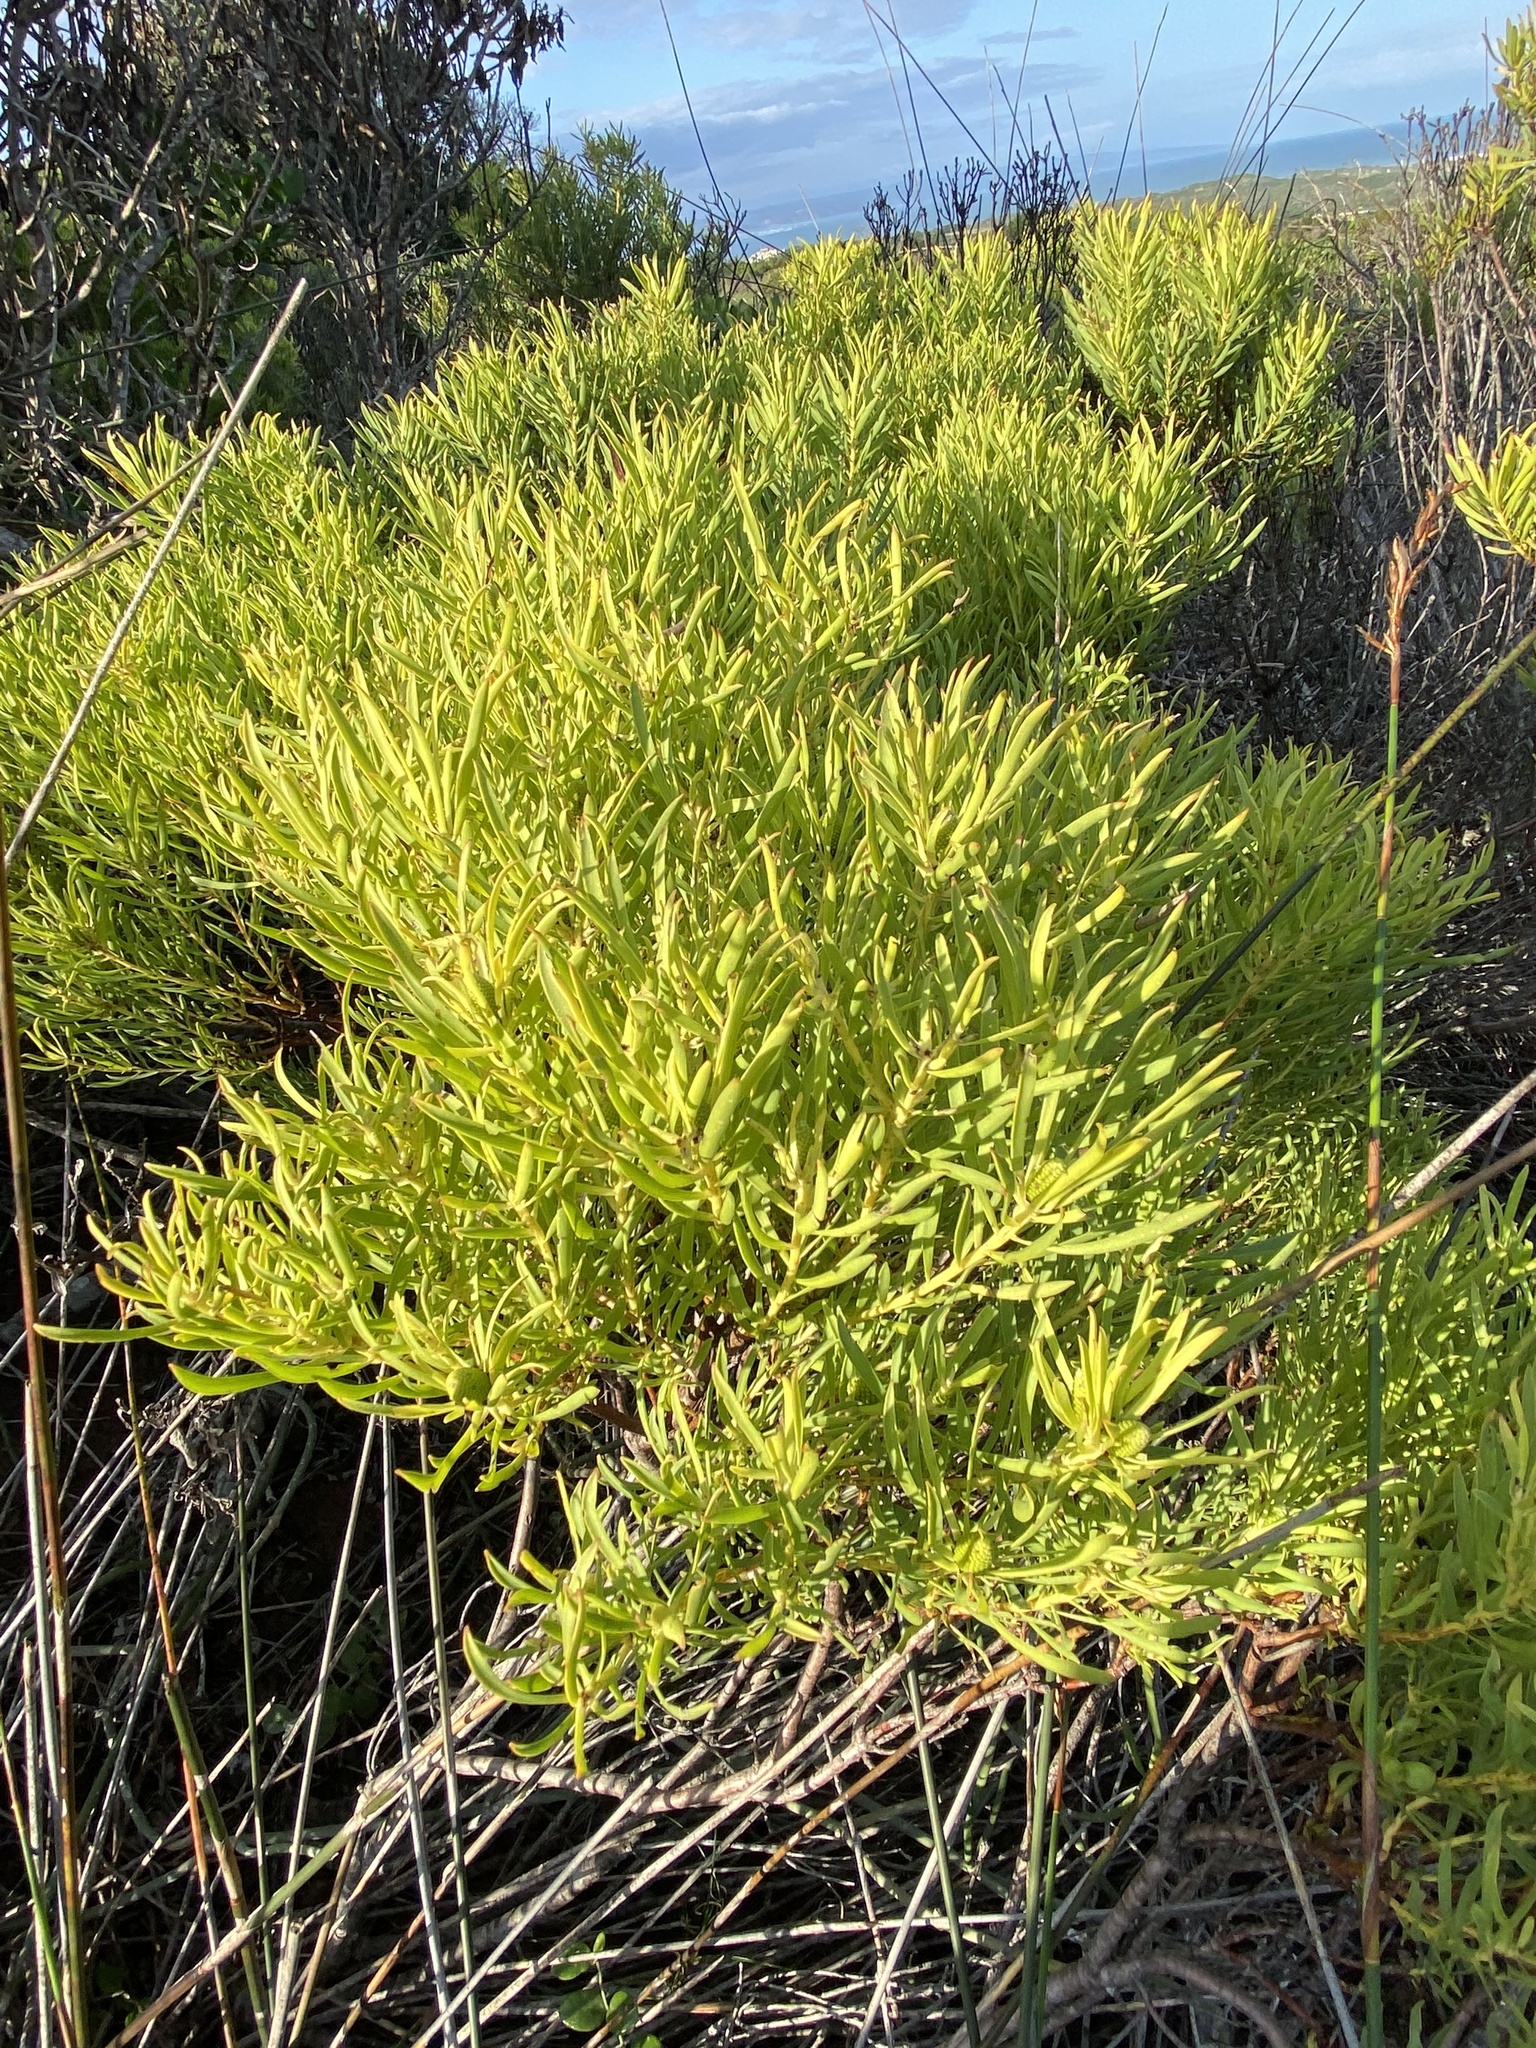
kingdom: Plantae
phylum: Tracheophyta
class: Magnoliopsida
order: Proteales
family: Proteaceae
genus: Leucadendron
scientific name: Leucadendron salignum
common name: Common sunshine conebush
